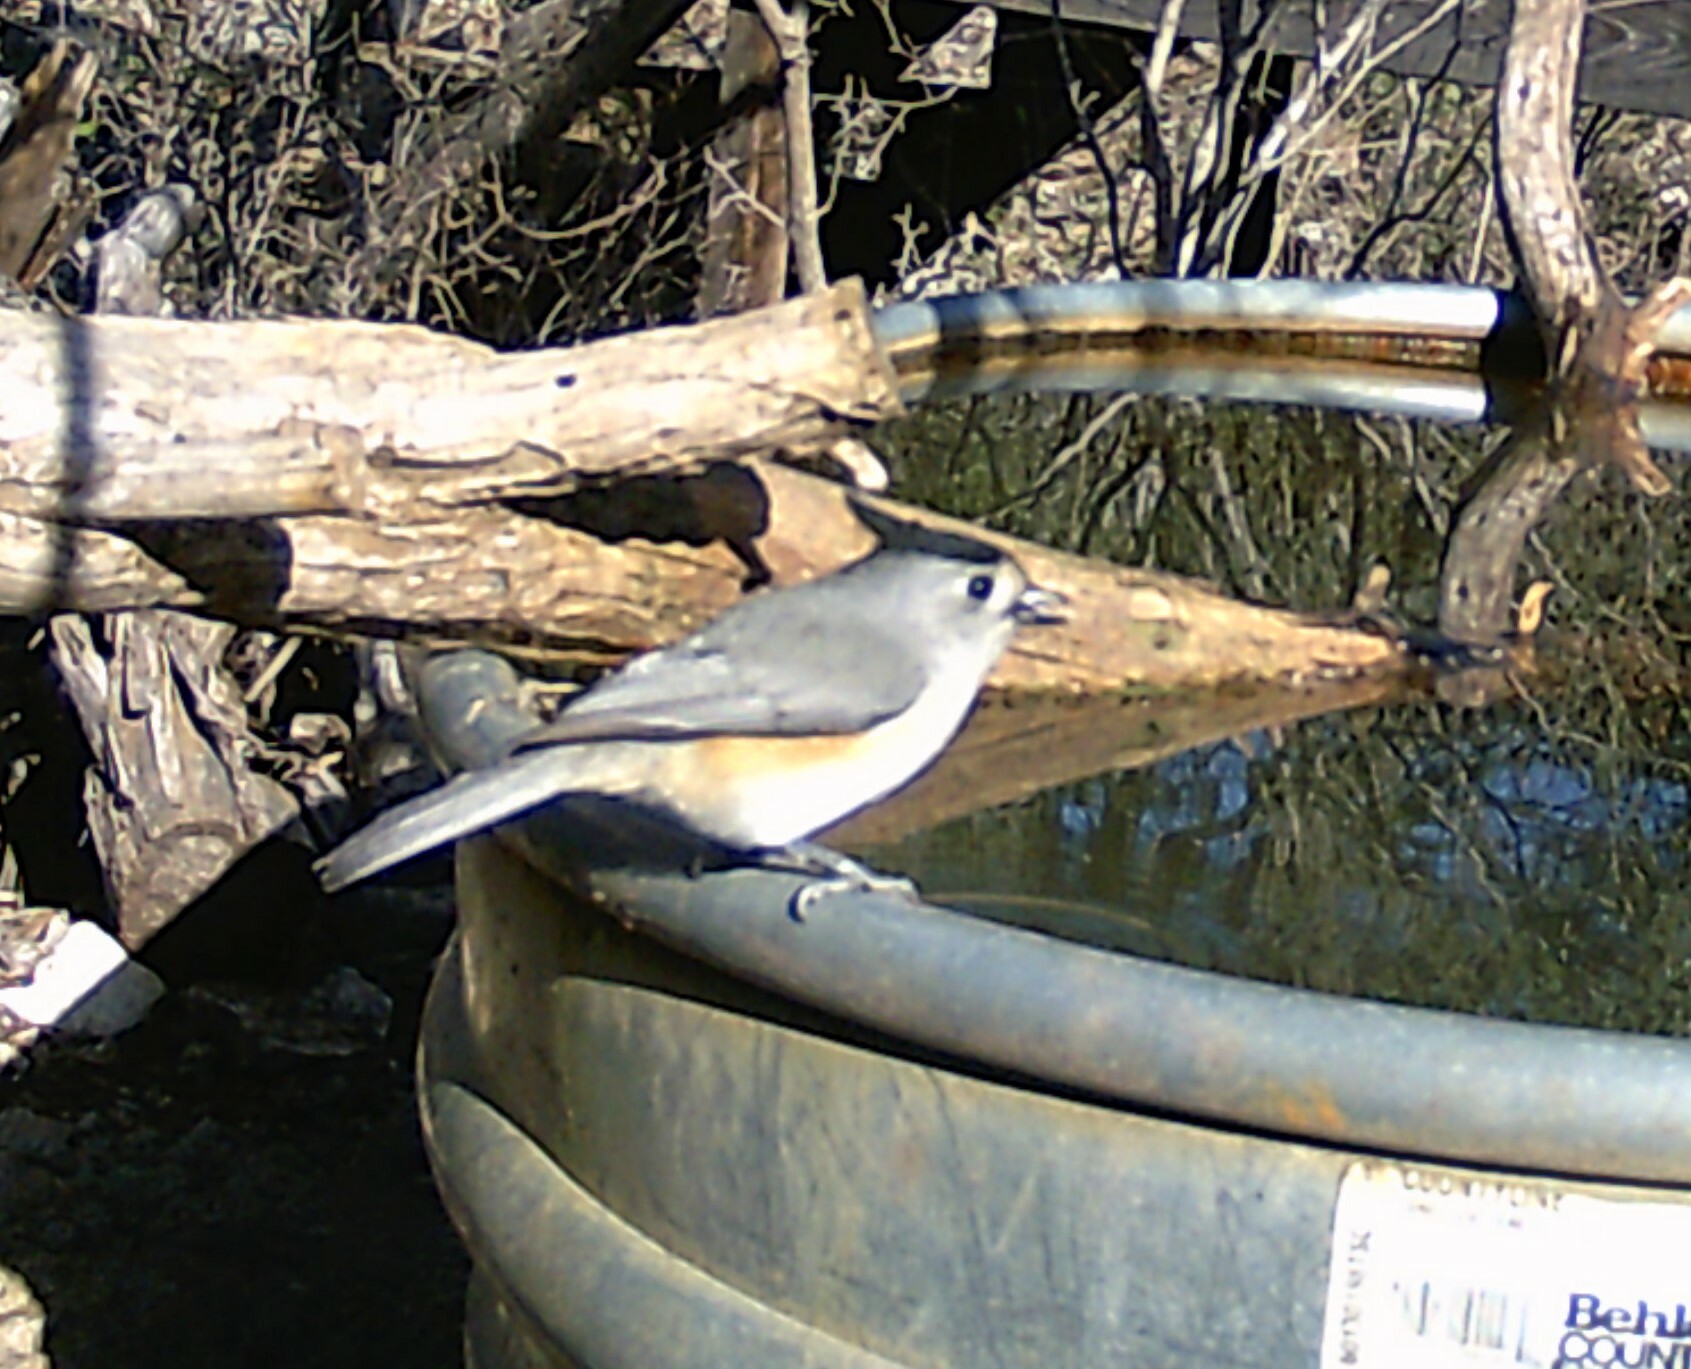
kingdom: Animalia
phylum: Chordata
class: Aves
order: Passeriformes
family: Paridae
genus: Baeolophus
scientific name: Baeolophus atricristatus
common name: Black-crested titmouse
